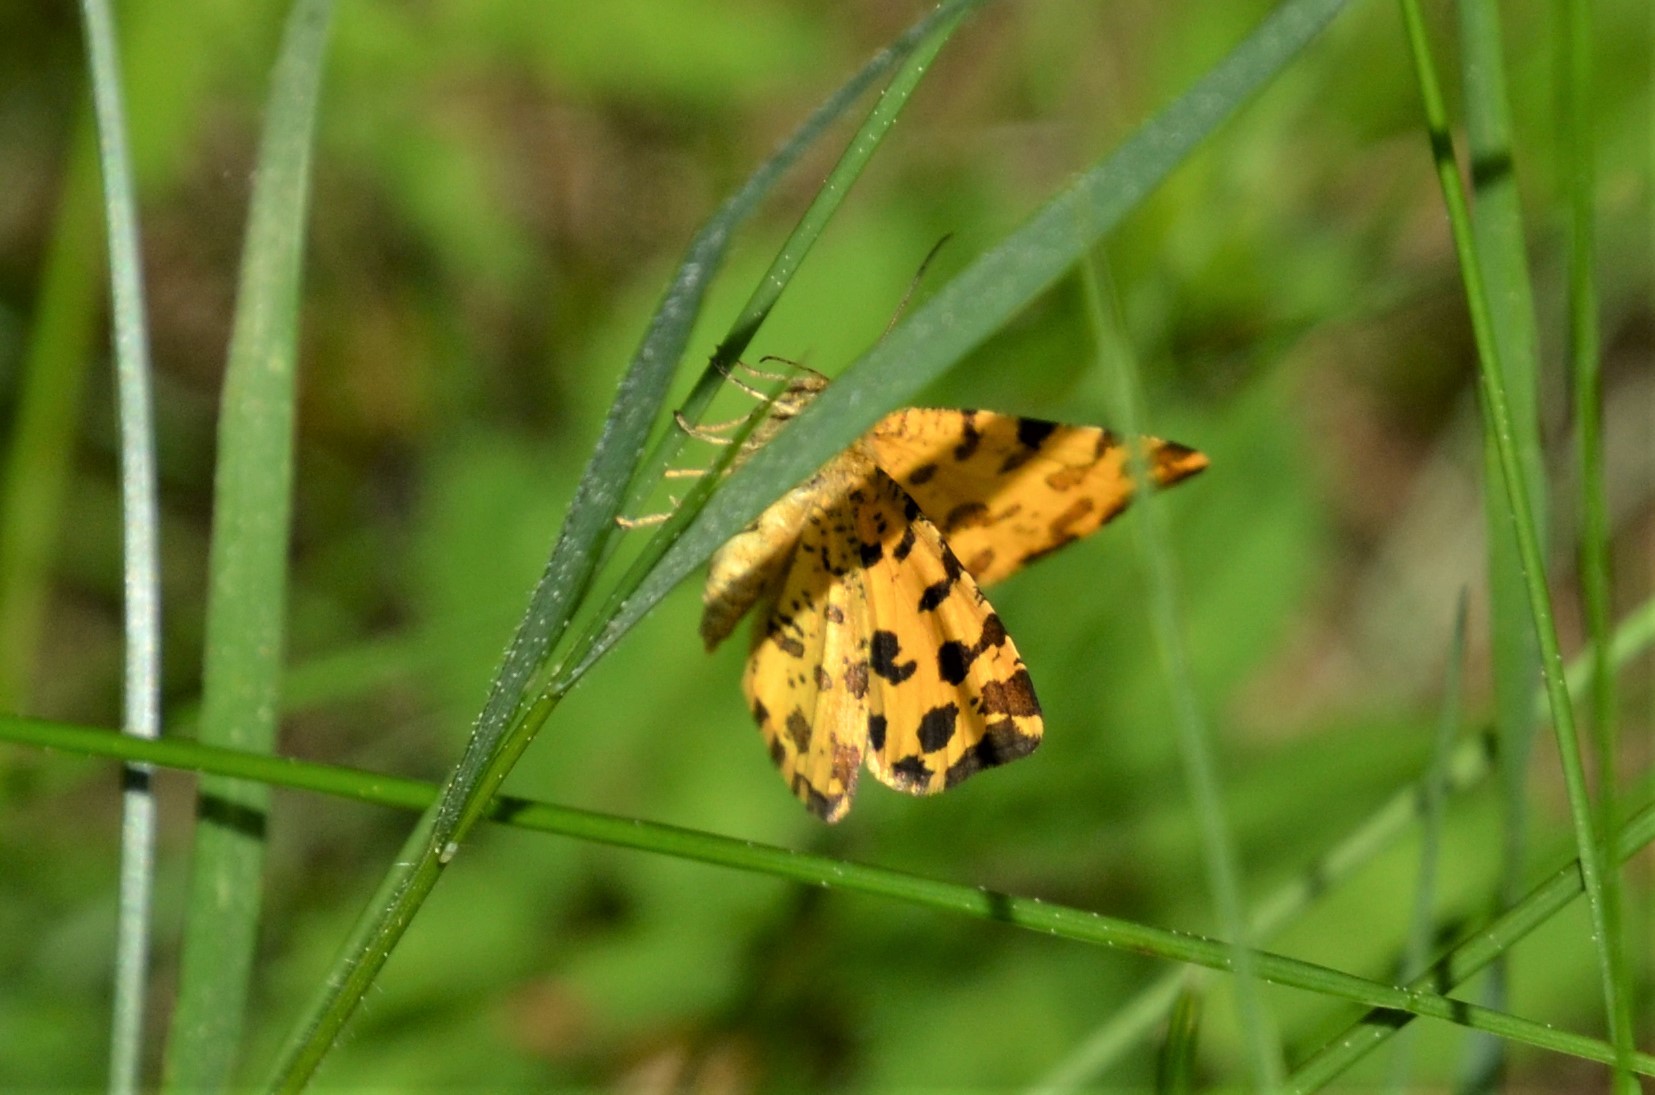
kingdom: Animalia
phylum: Arthropoda
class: Insecta
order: Lepidoptera
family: Geometridae
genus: Pseudopanthera
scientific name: Pseudopanthera macularia
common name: Speckled yellow
